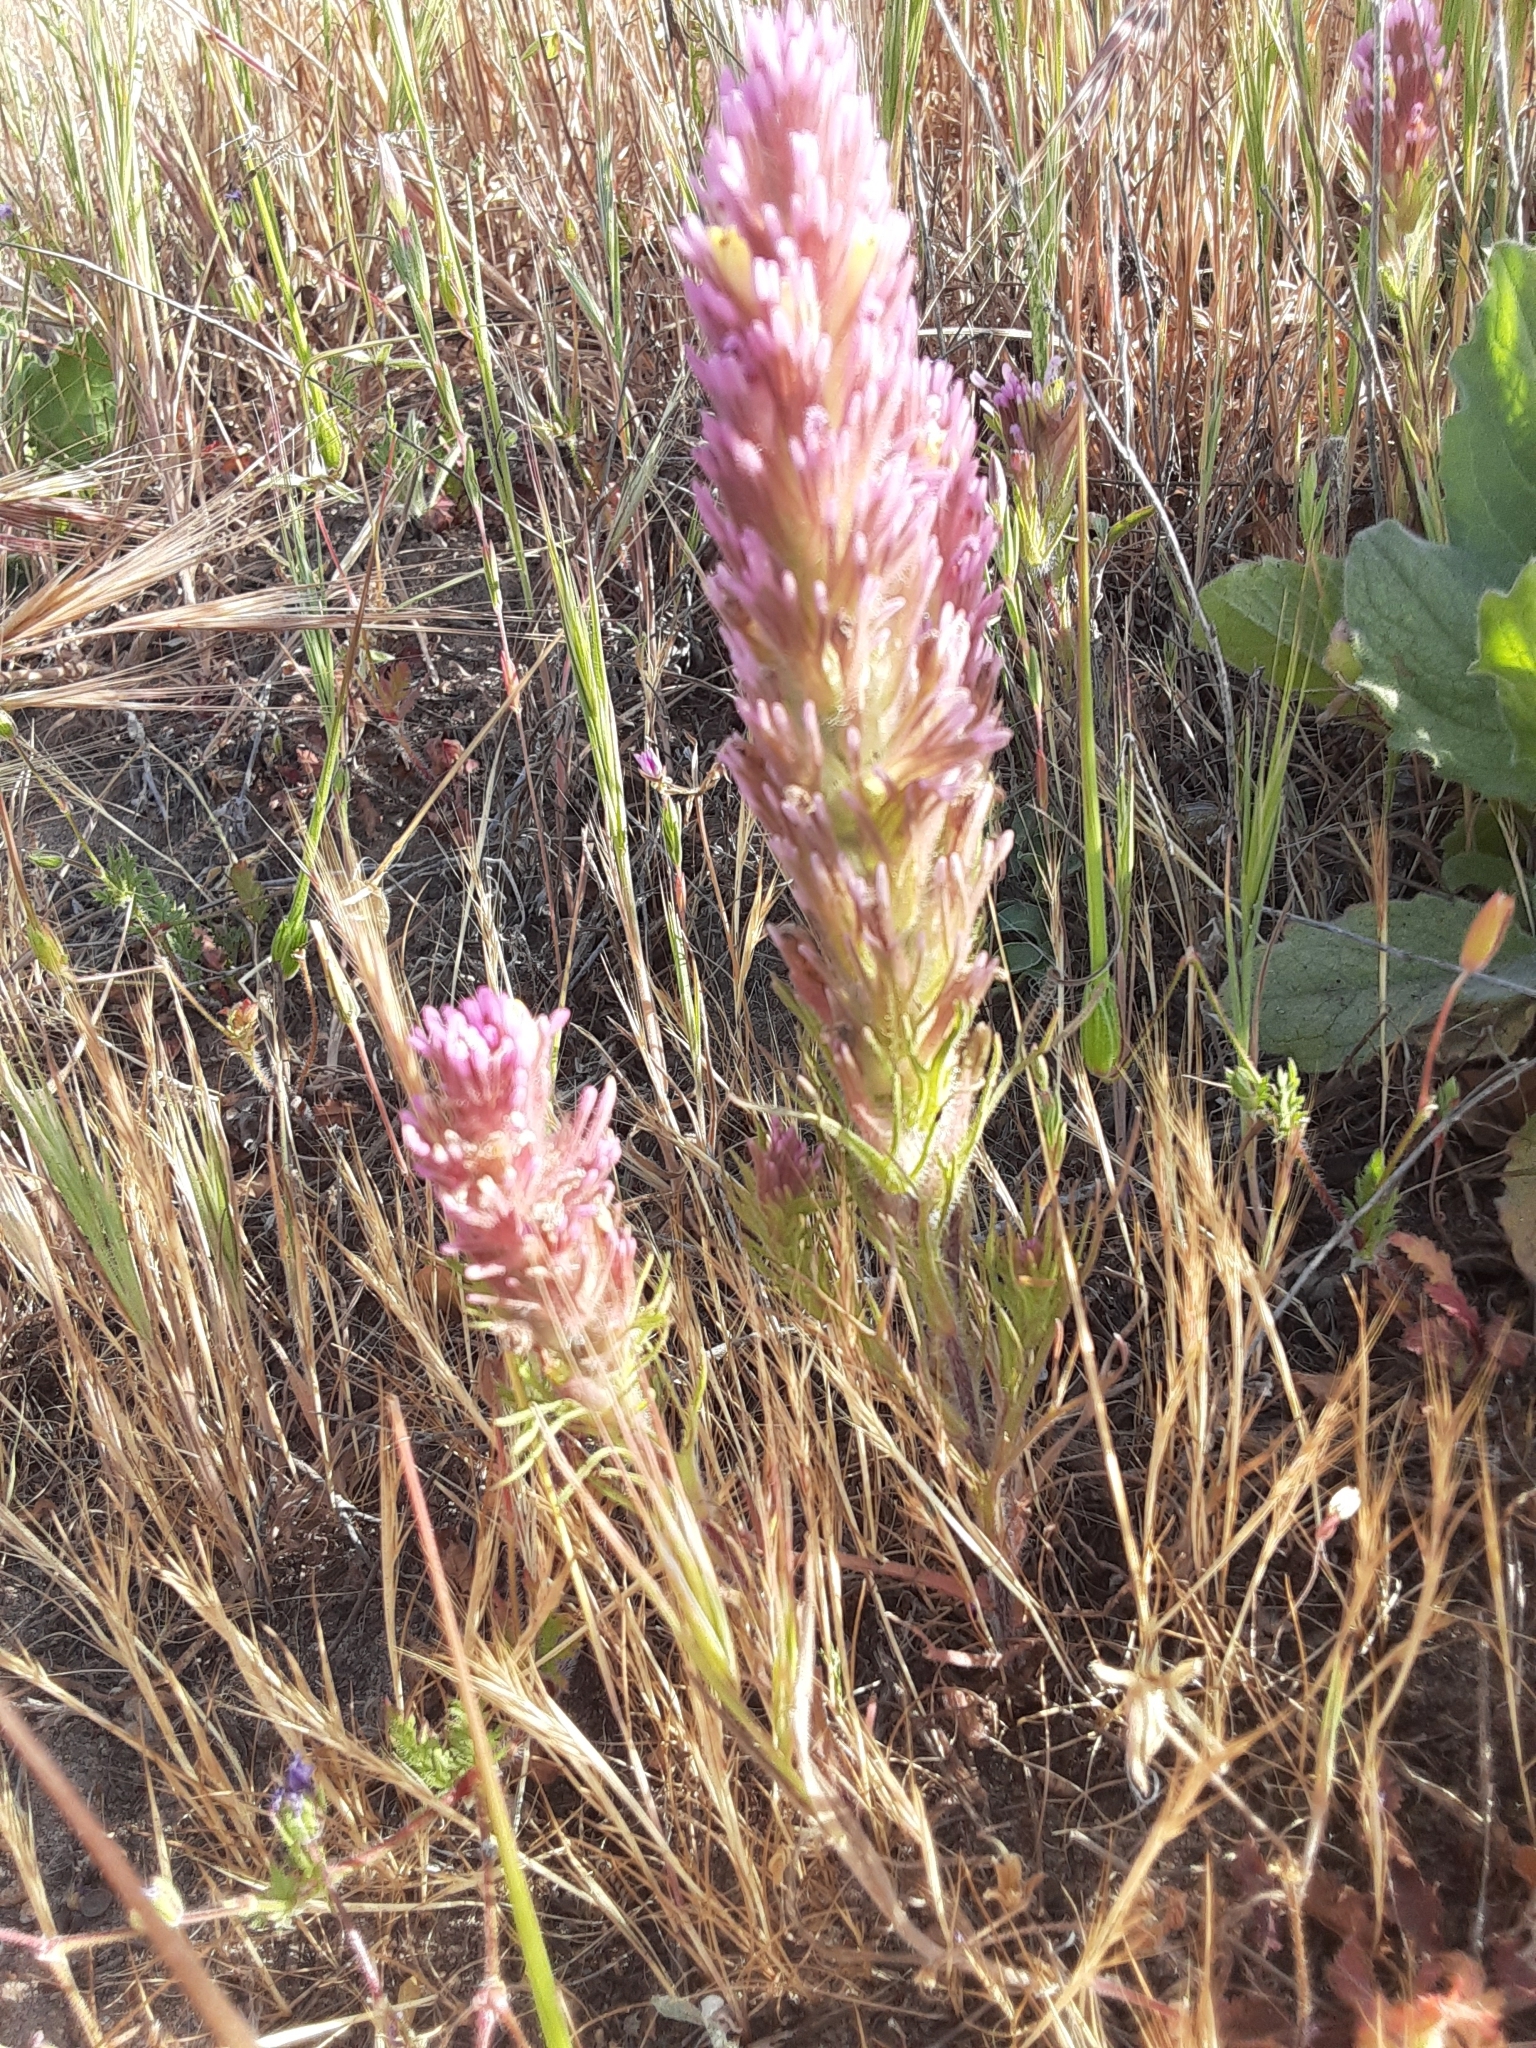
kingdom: Plantae
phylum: Tracheophyta
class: Magnoliopsida
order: Lamiales
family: Orobanchaceae
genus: Castilleja
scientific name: Castilleja exserta
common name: Purple owl-clover
